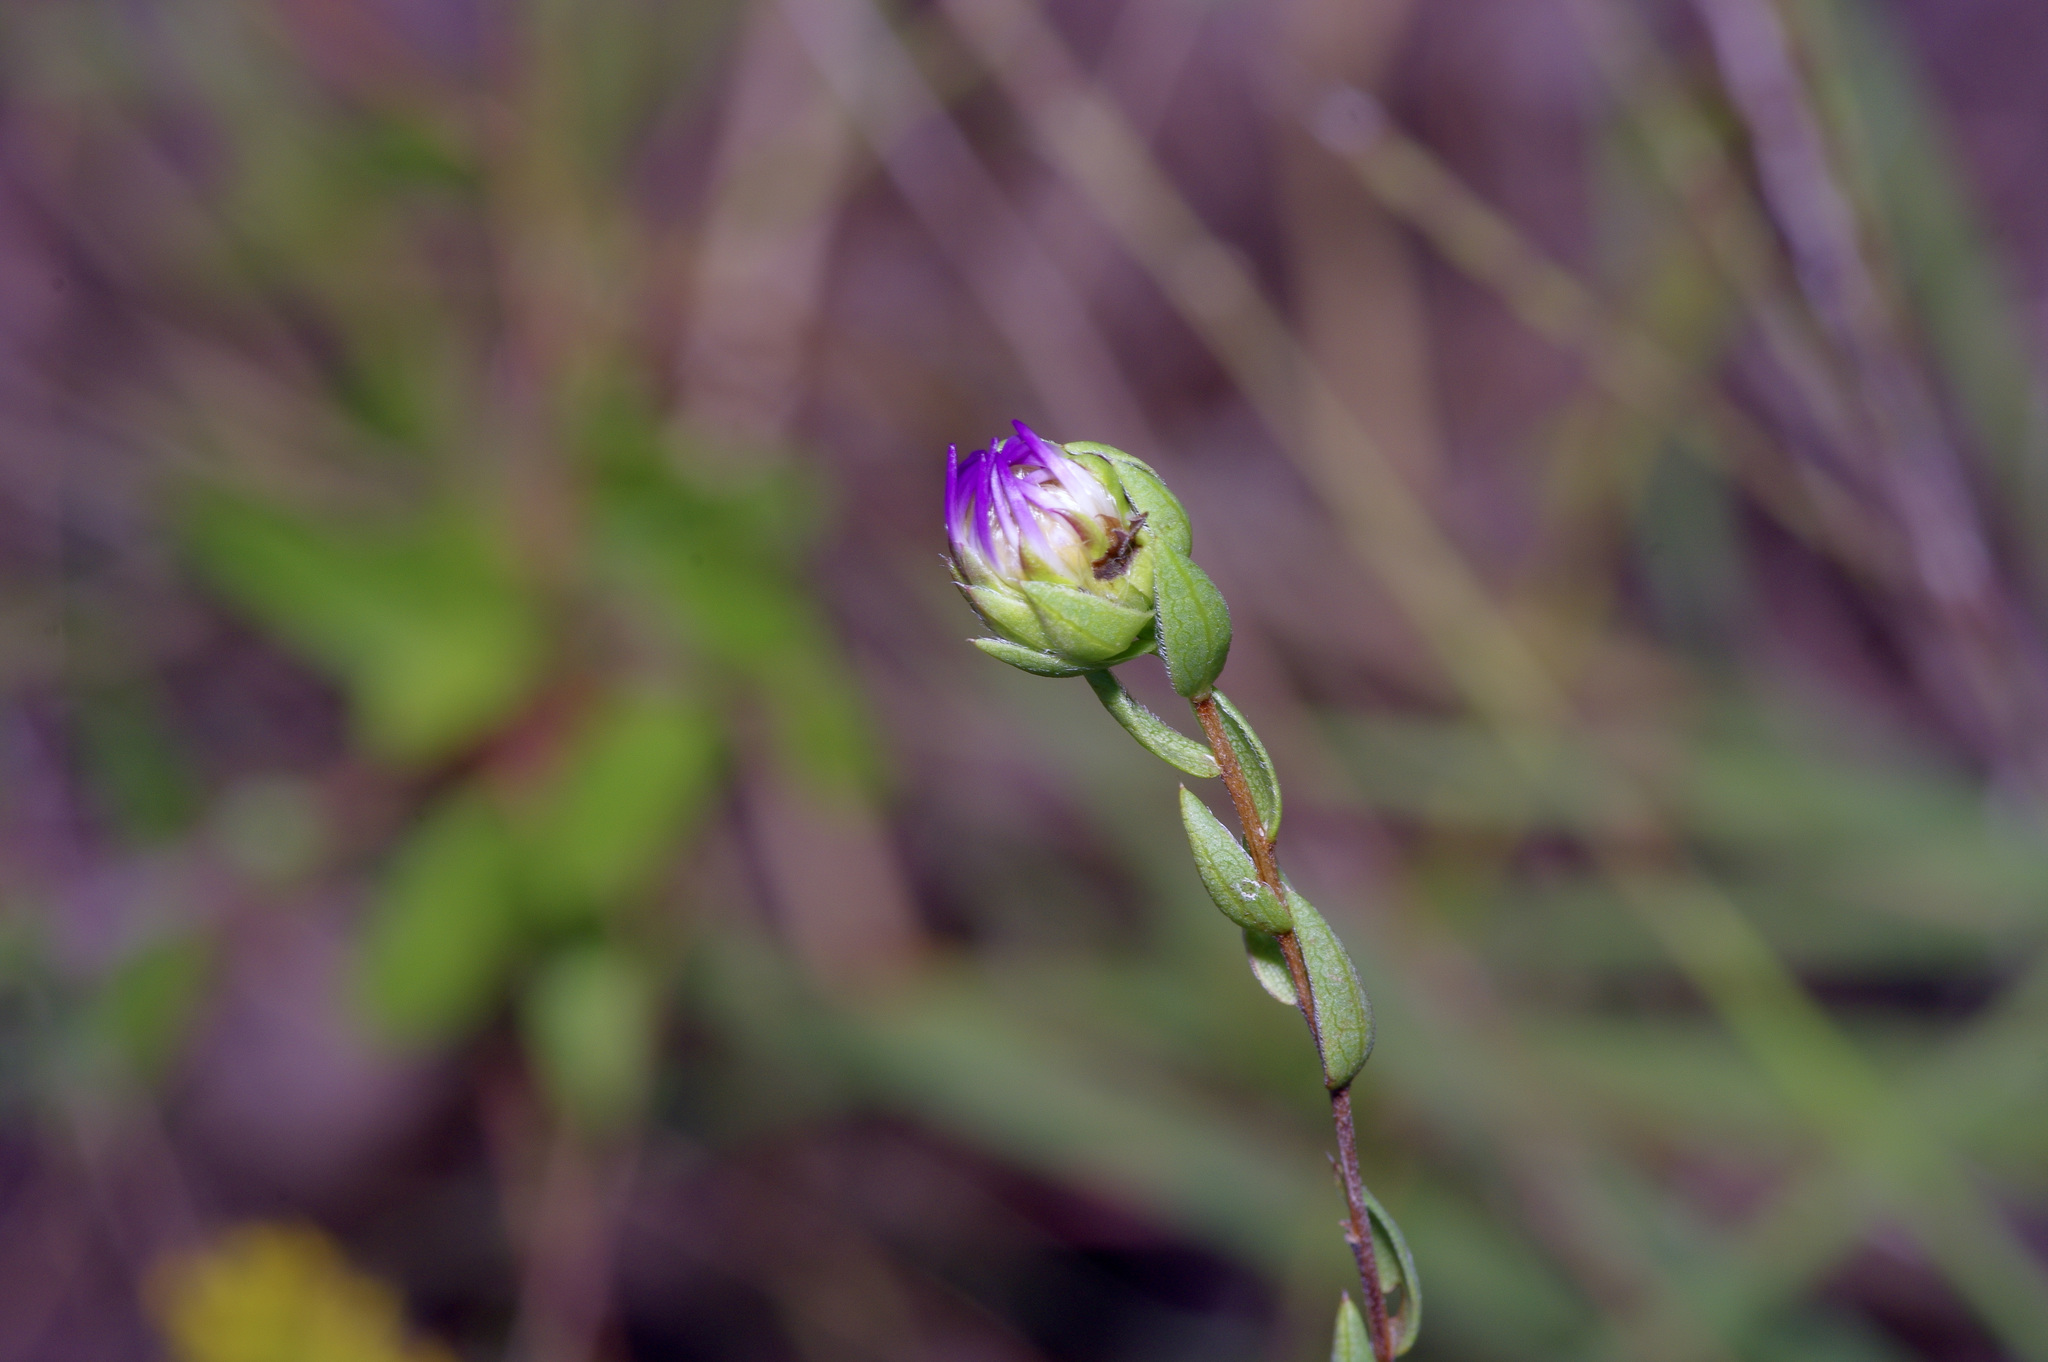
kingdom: Plantae
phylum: Tracheophyta
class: Magnoliopsida
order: Asterales
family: Asteraceae
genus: Symphyotrichum
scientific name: Symphyotrichum pratense
